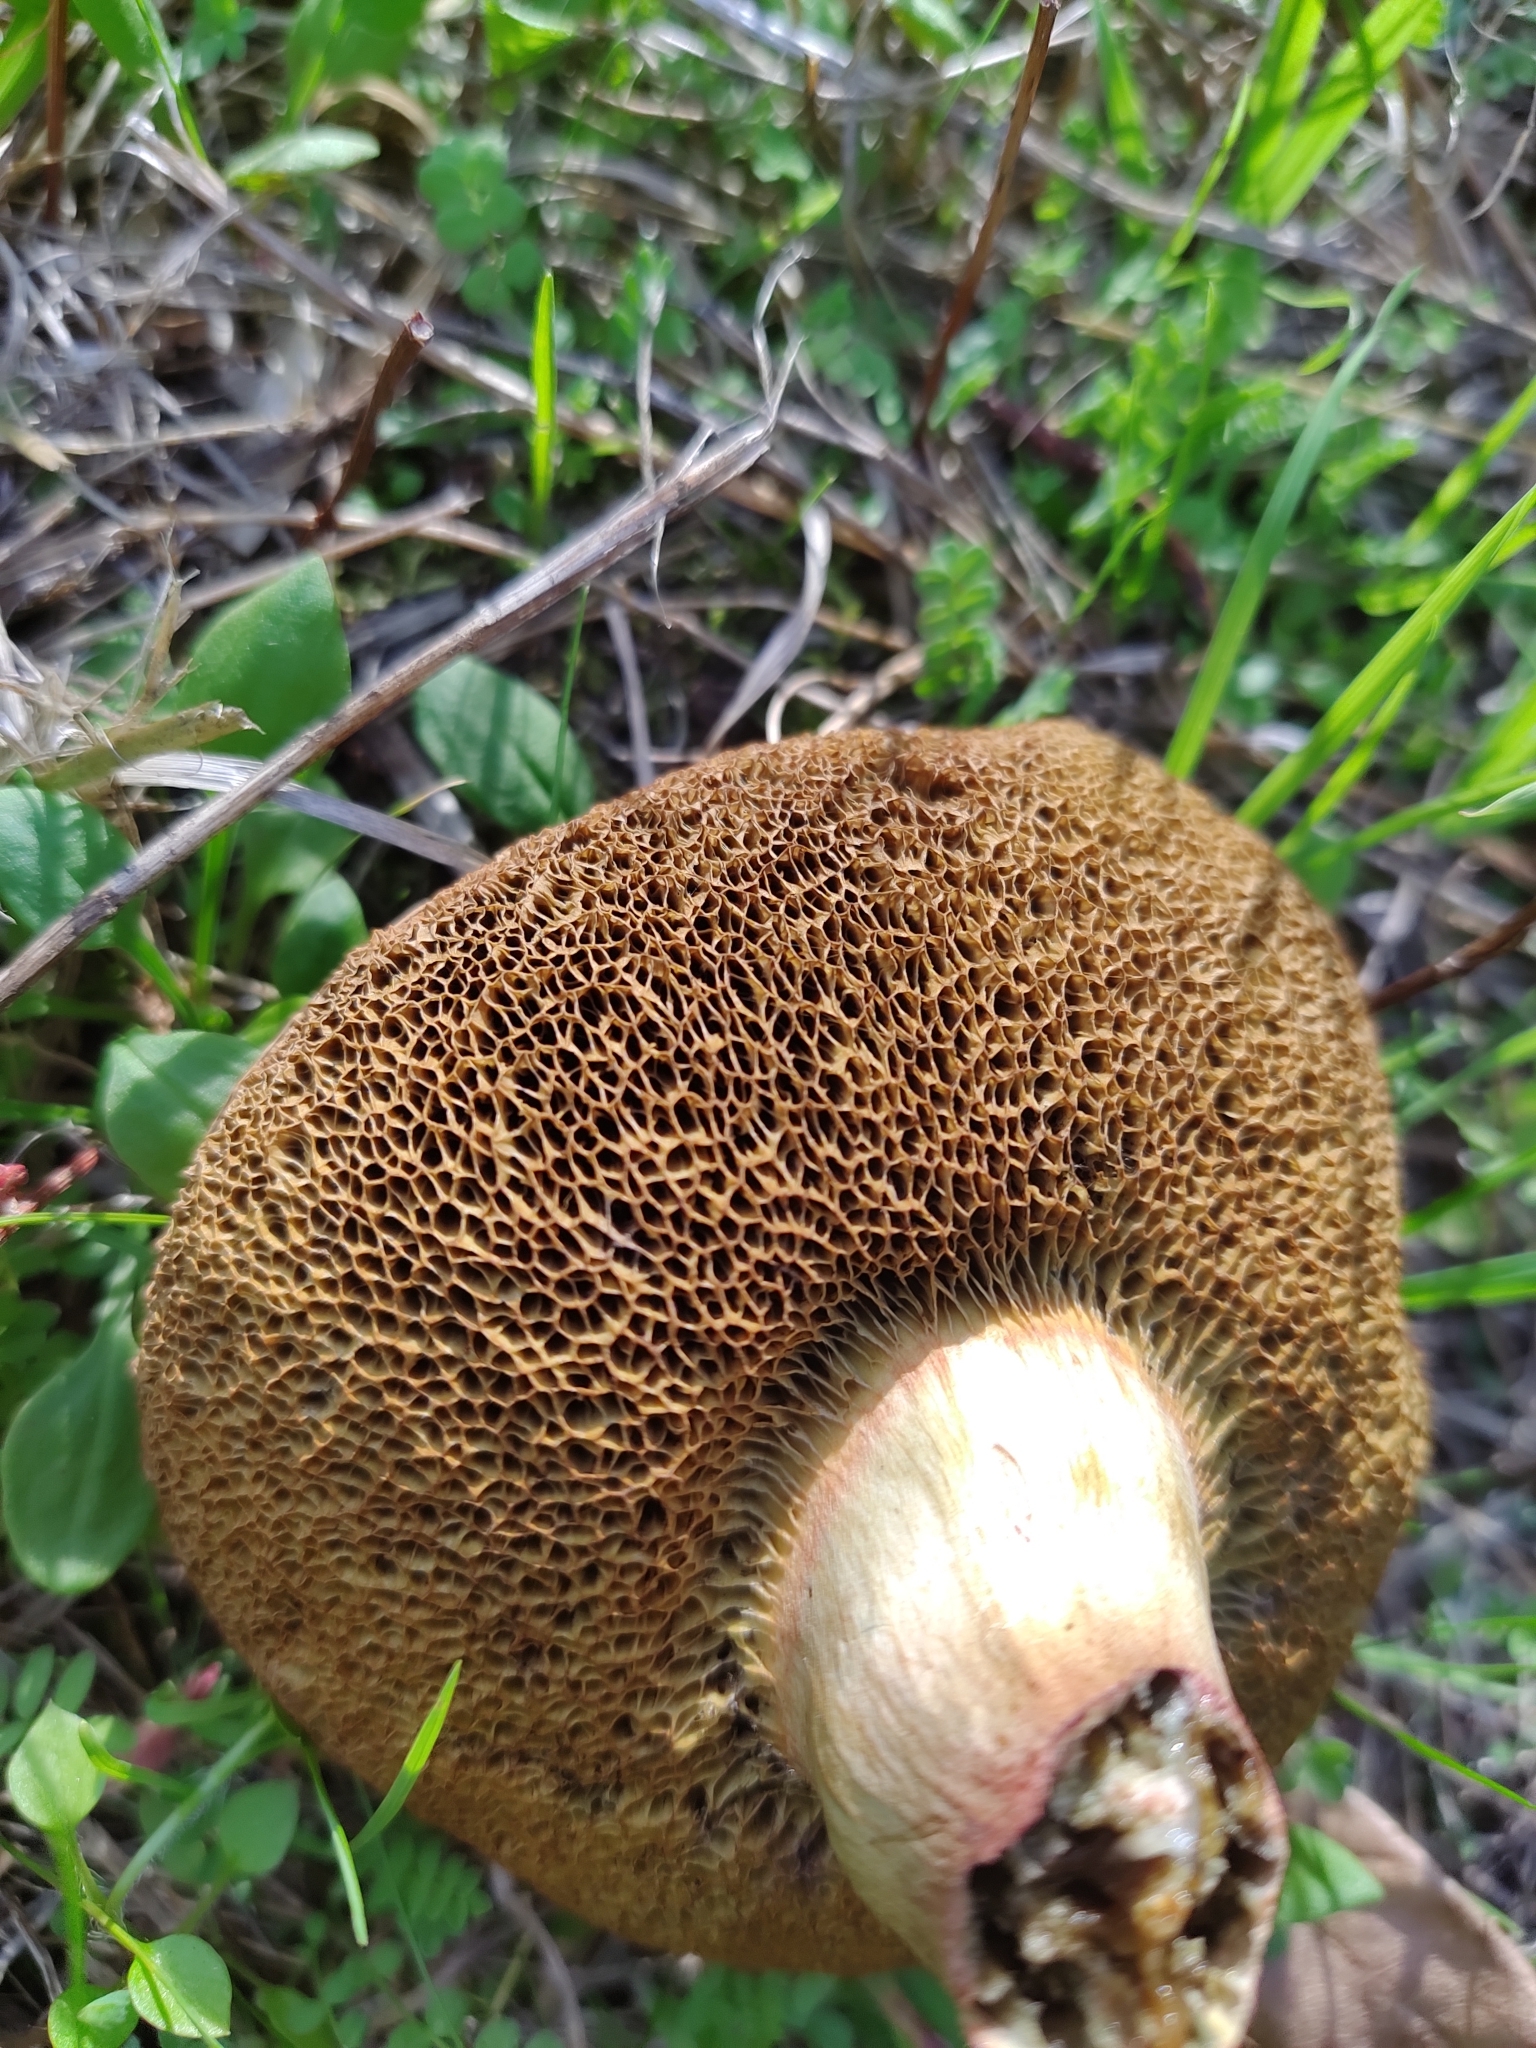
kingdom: Fungi
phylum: Basidiomycota
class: Agaricomycetes
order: Boletales
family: Boletaceae
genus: Xerocomellus
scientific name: Xerocomellus chrysenteron
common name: Red-cracking bolete
